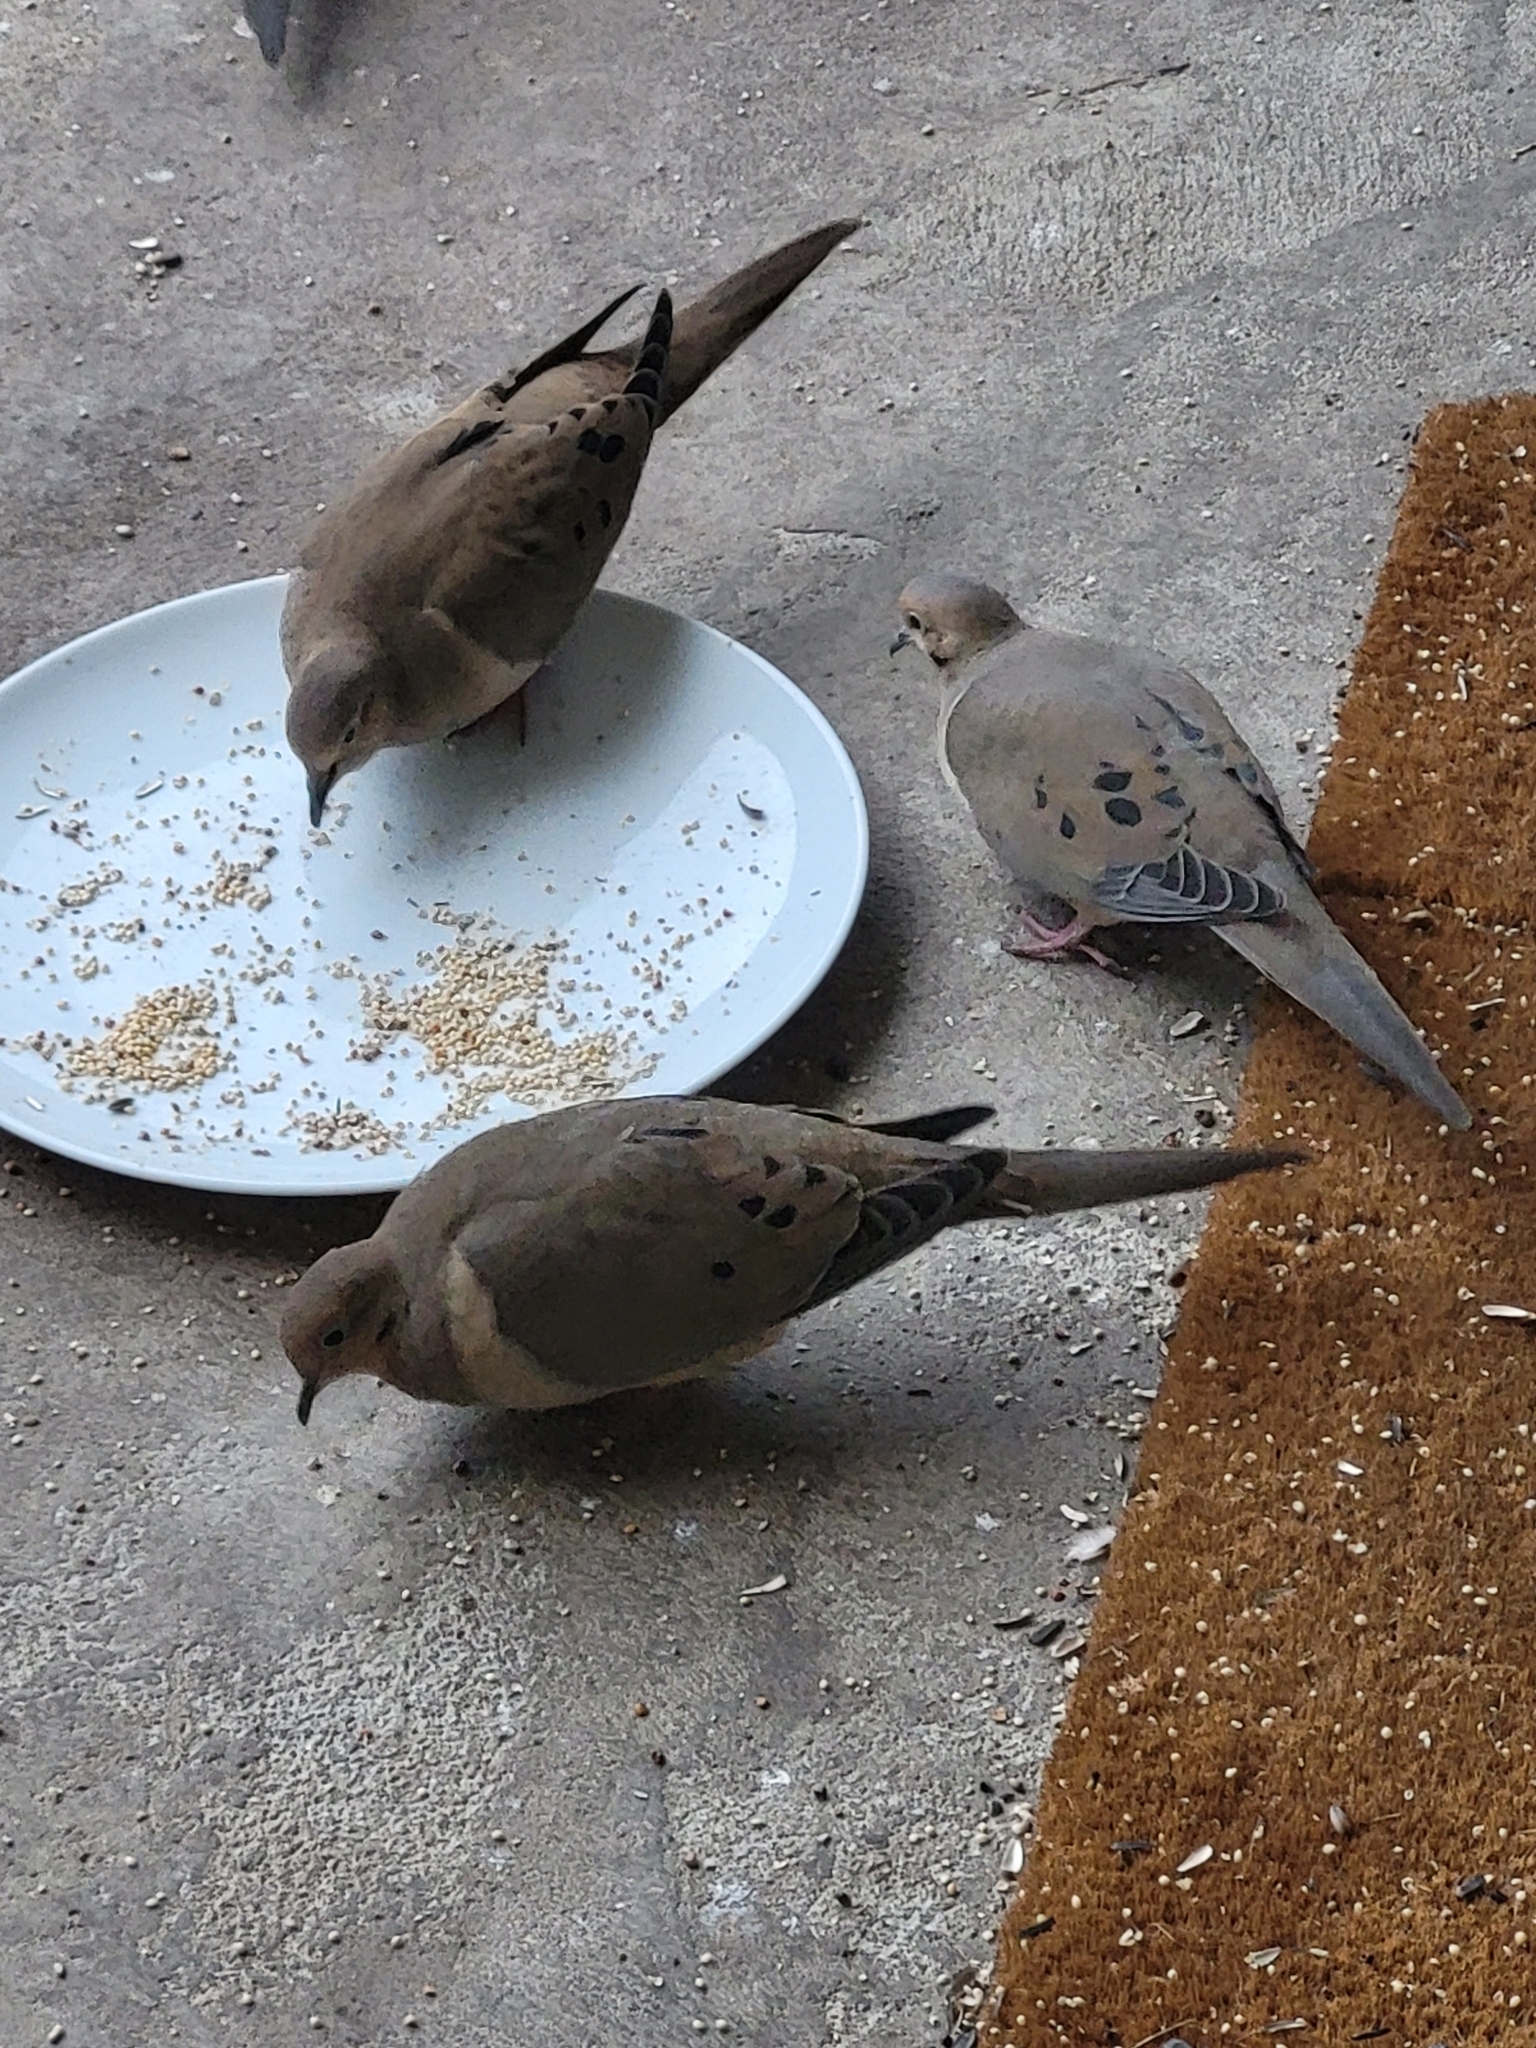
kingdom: Animalia
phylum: Chordata
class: Aves
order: Columbiformes
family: Columbidae
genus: Zenaida
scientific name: Zenaida macroura
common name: Mourning dove
